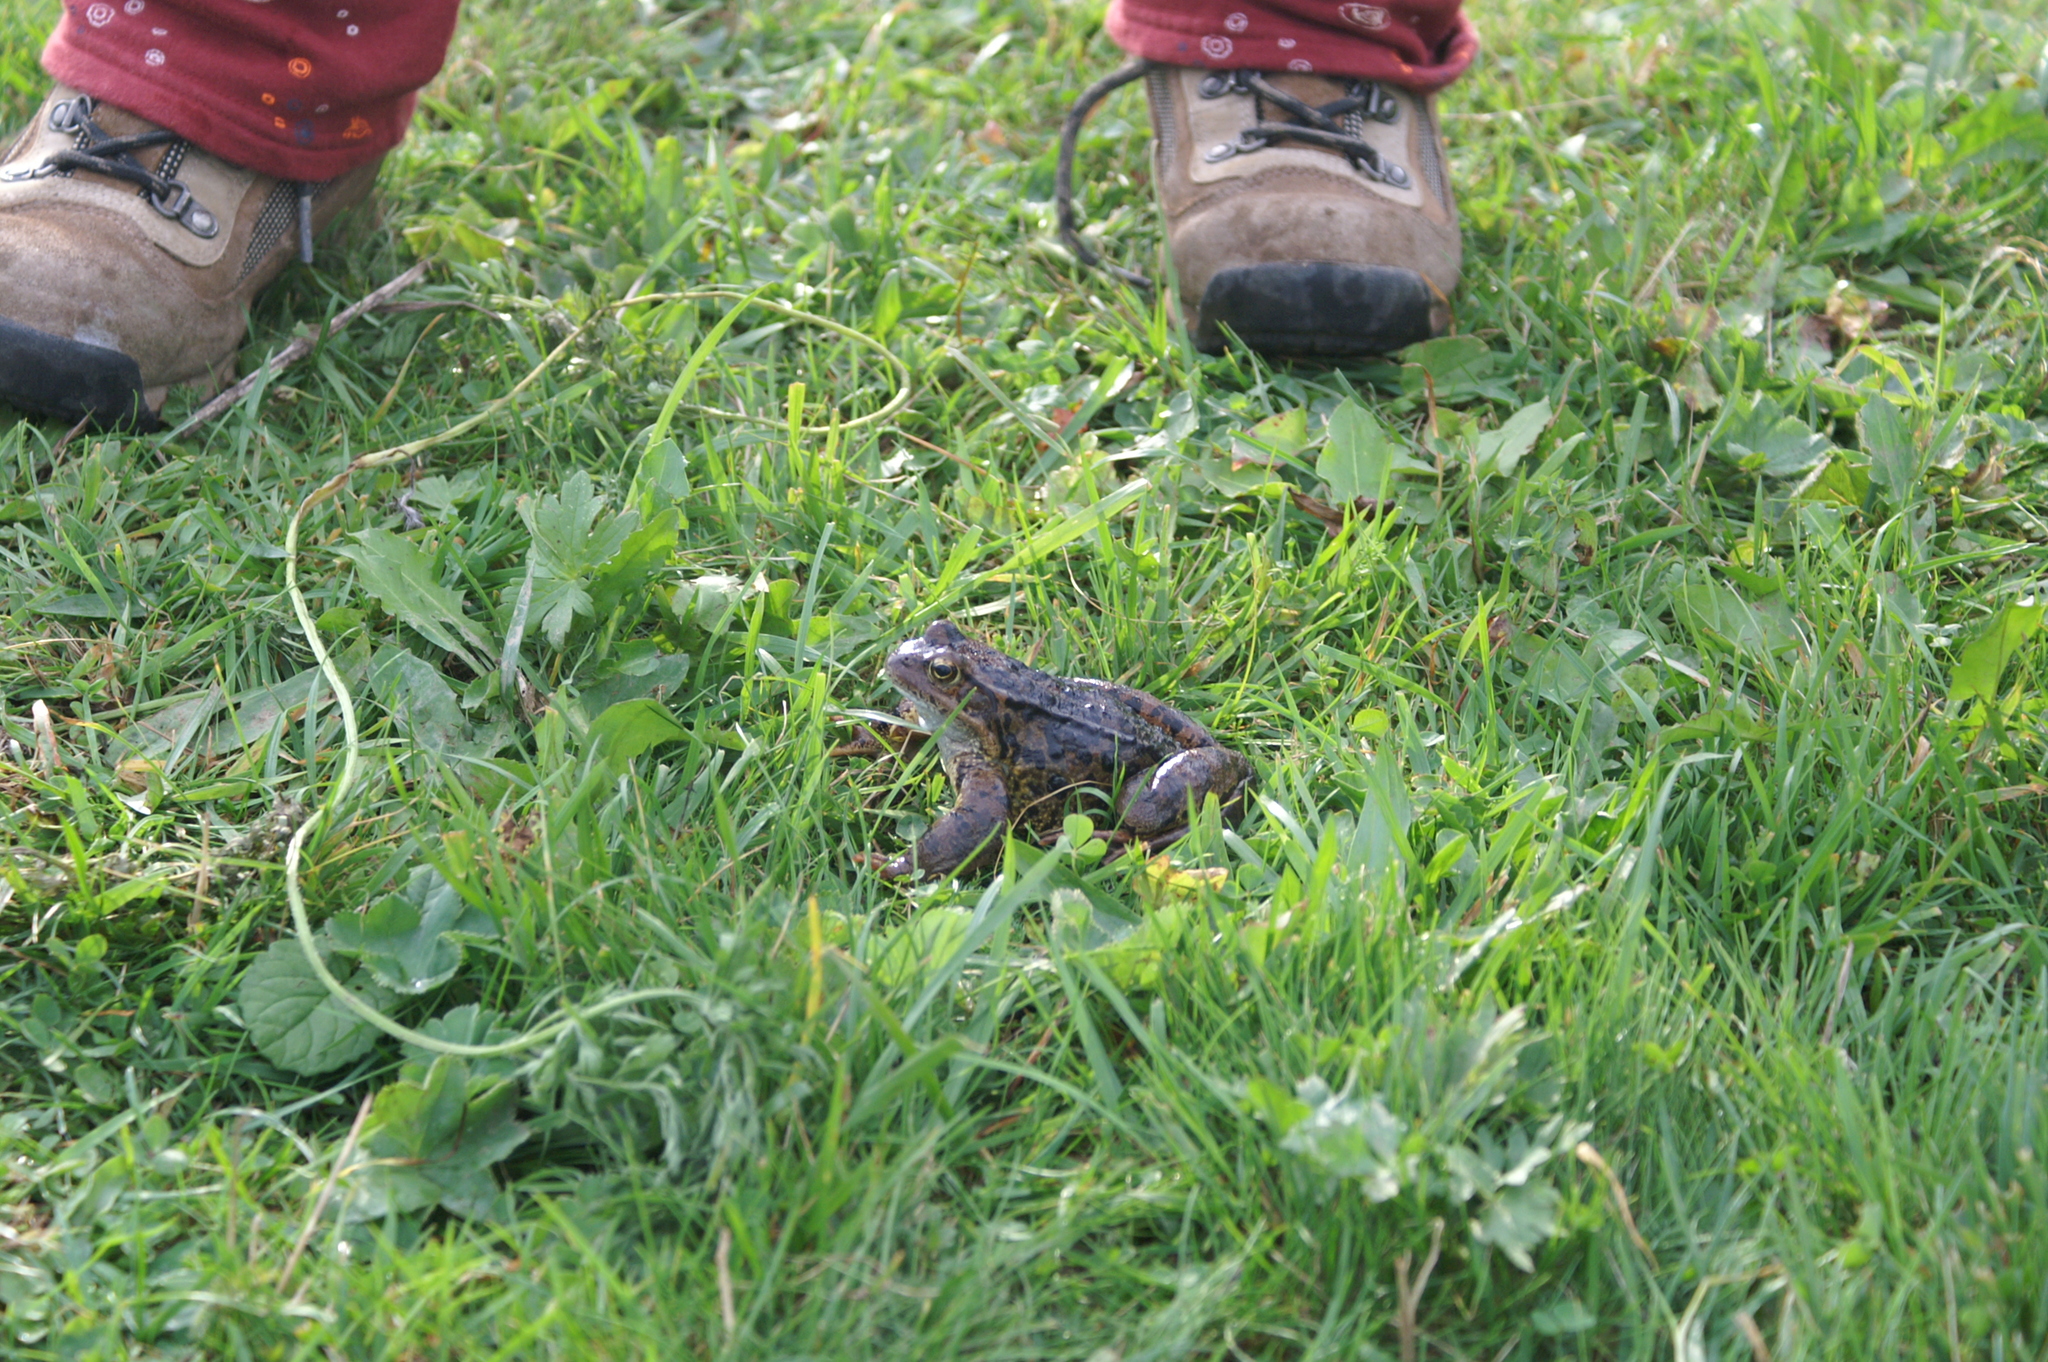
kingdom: Animalia
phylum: Chordata
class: Amphibia
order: Anura
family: Ranidae
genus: Rana
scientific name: Rana temporaria
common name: Common frog
